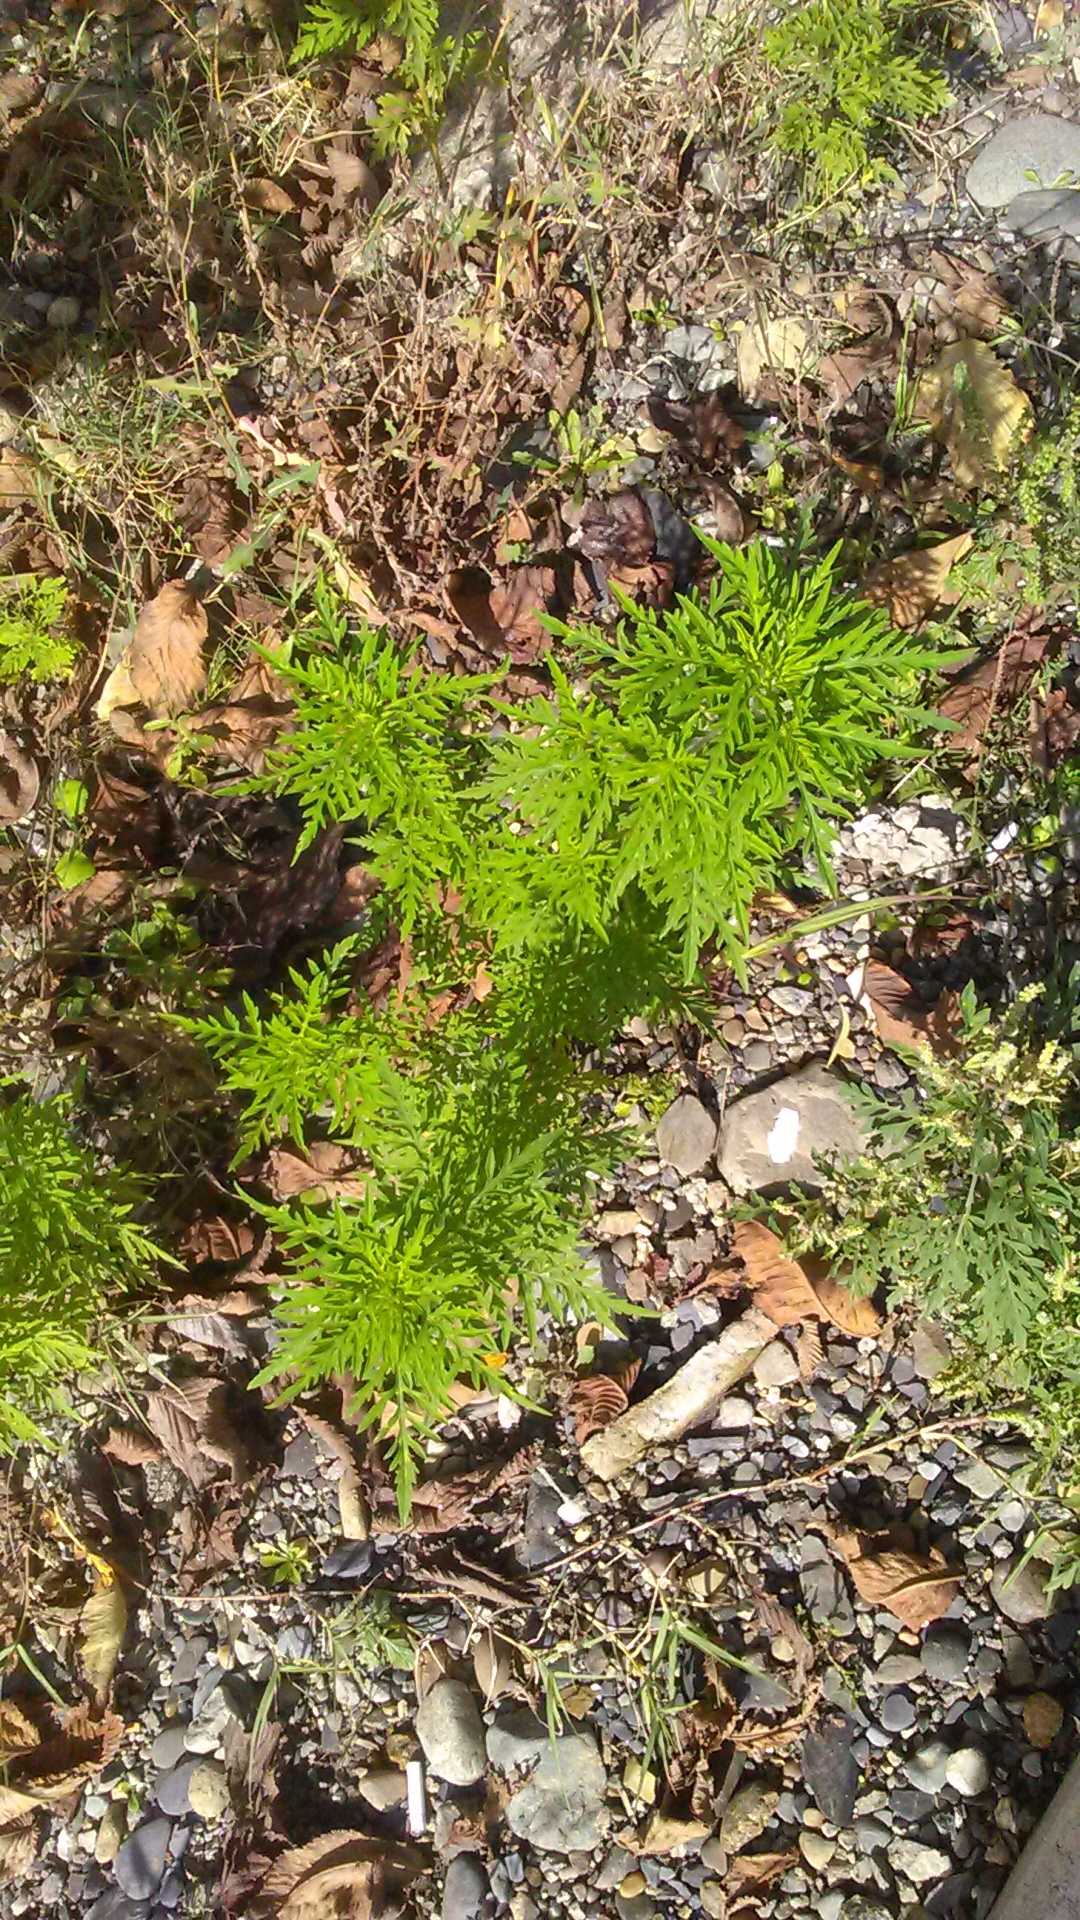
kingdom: Plantae
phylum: Tracheophyta
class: Magnoliopsida
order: Asterales
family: Asteraceae
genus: Ambrosia
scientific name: Ambrosia artemisiifolia
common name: Annual ragweed
